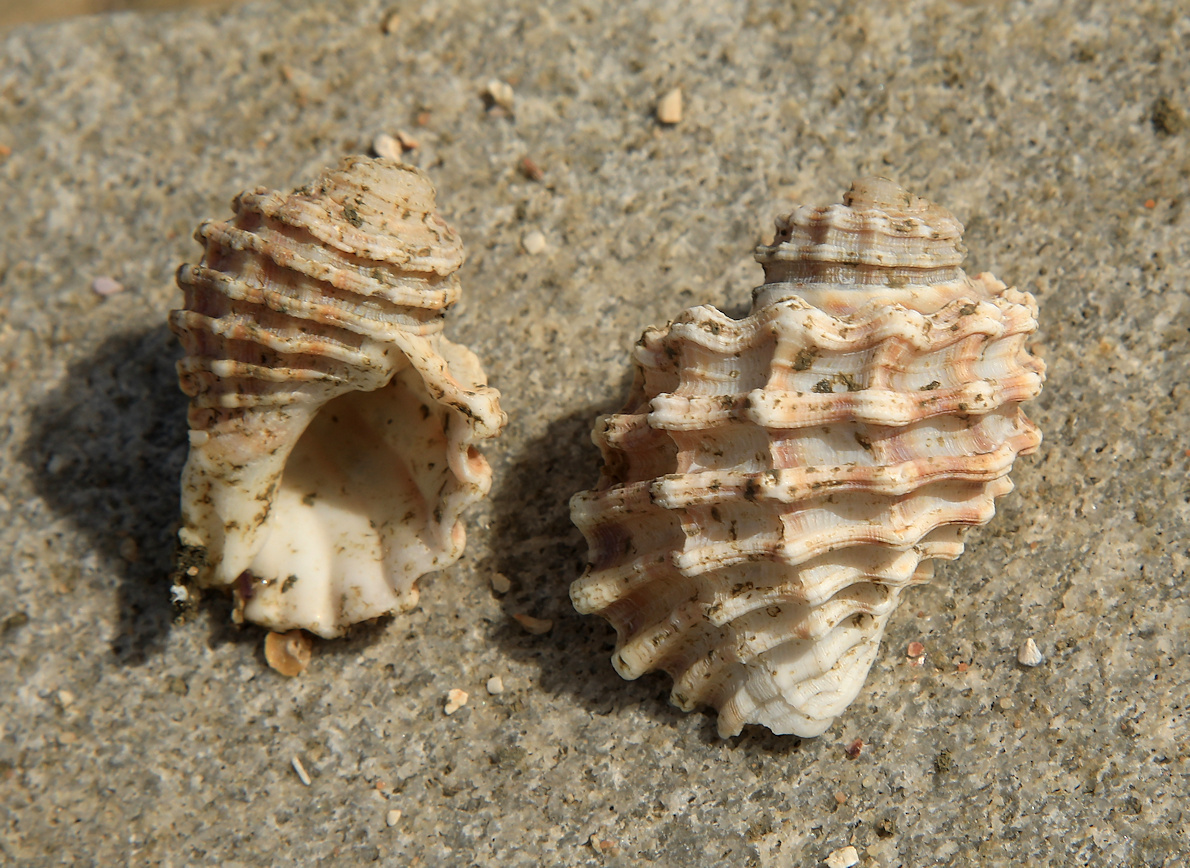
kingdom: Animalia
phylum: Mollusca
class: Gastropoda
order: Littorinimorpha
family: Cymatiidae
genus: Cabestana
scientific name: Cabestana africana
